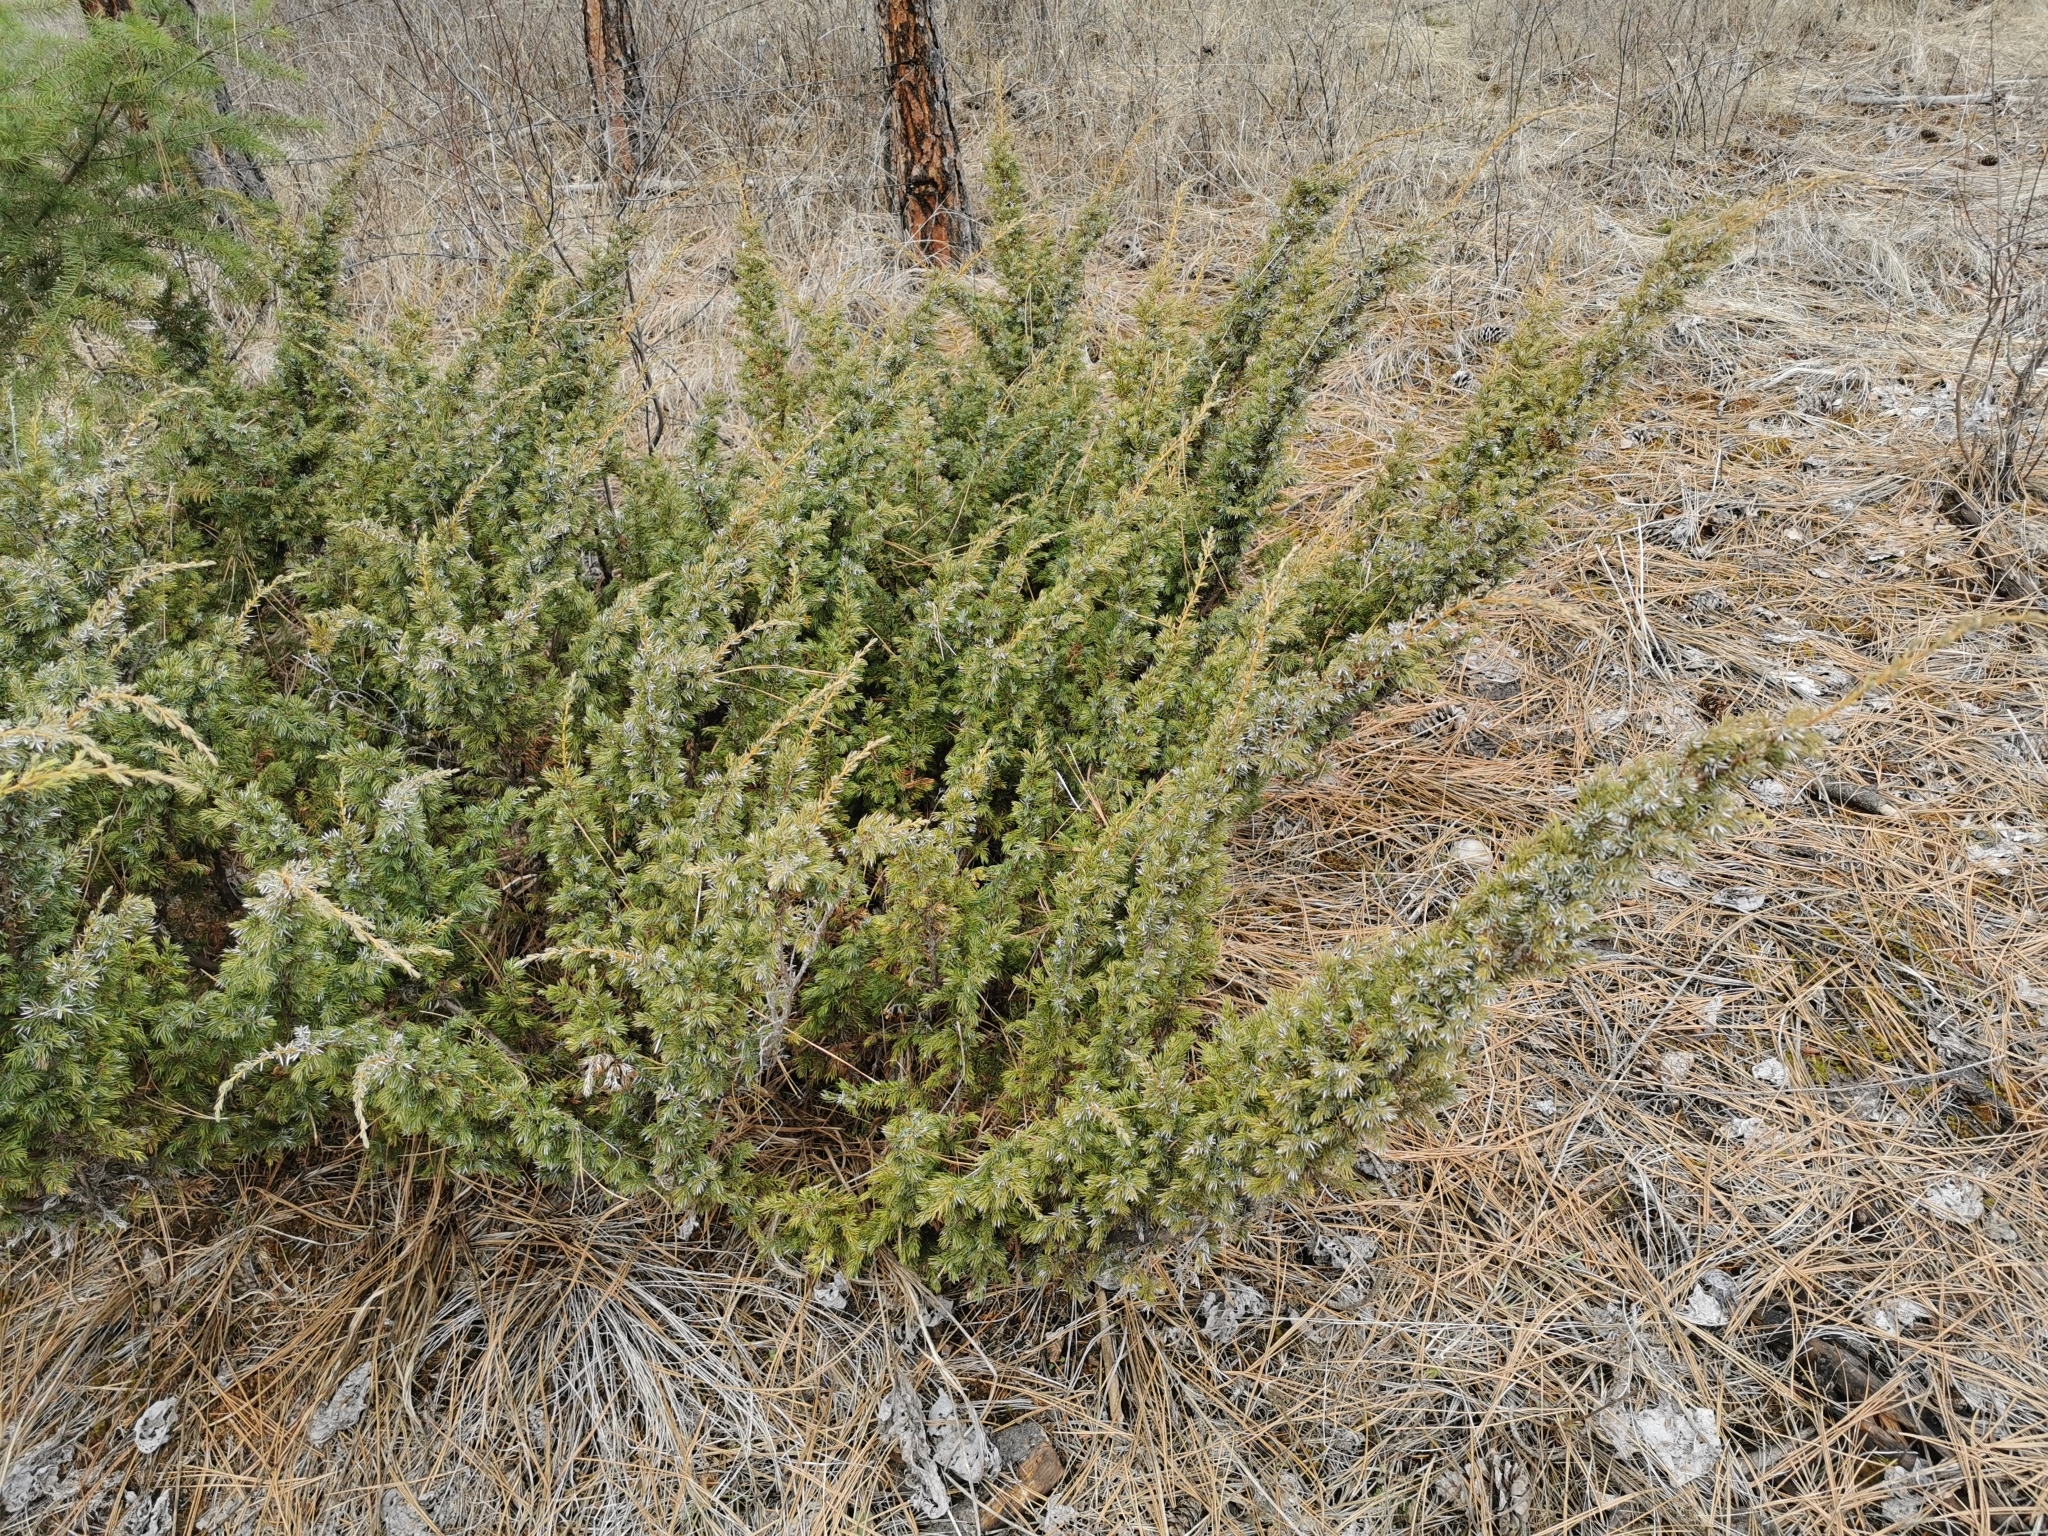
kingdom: Plantae
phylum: Tracheophyta
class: Pinopsida
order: Pinales
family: Cupressaceae
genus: Juniperus
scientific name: Juniperus communis
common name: Common juniper
